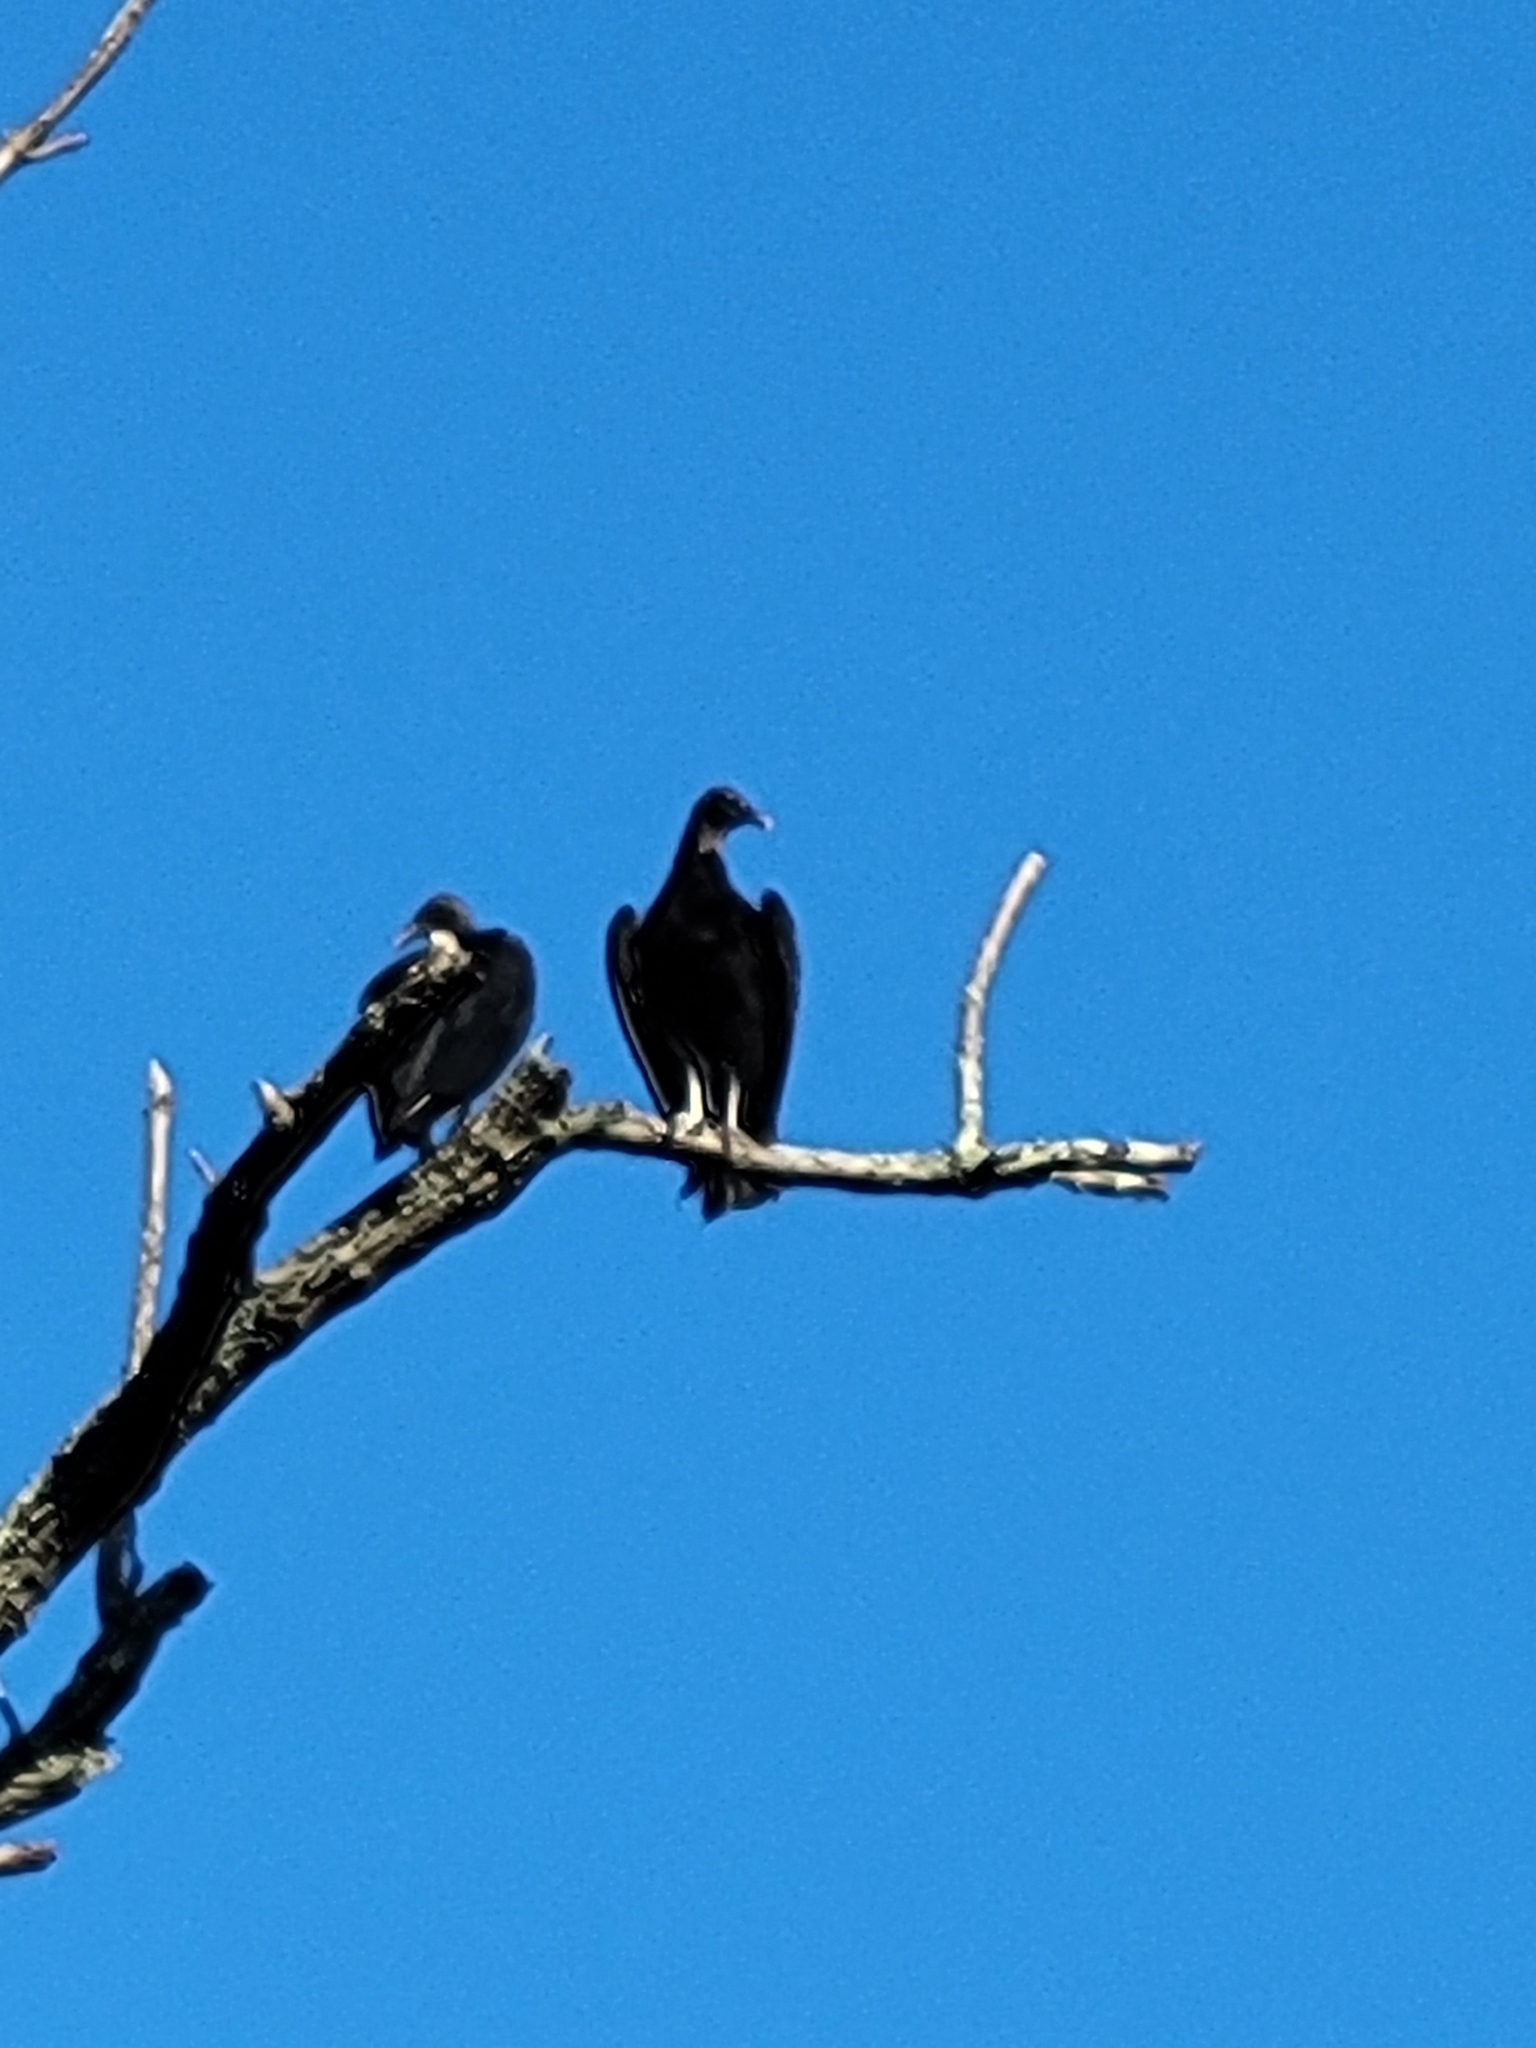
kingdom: Animalia
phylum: Chordata
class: Aves
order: Accipitriformes
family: Cathartidae
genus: Coragyps
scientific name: Coragyps atratus
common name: Black vulture
